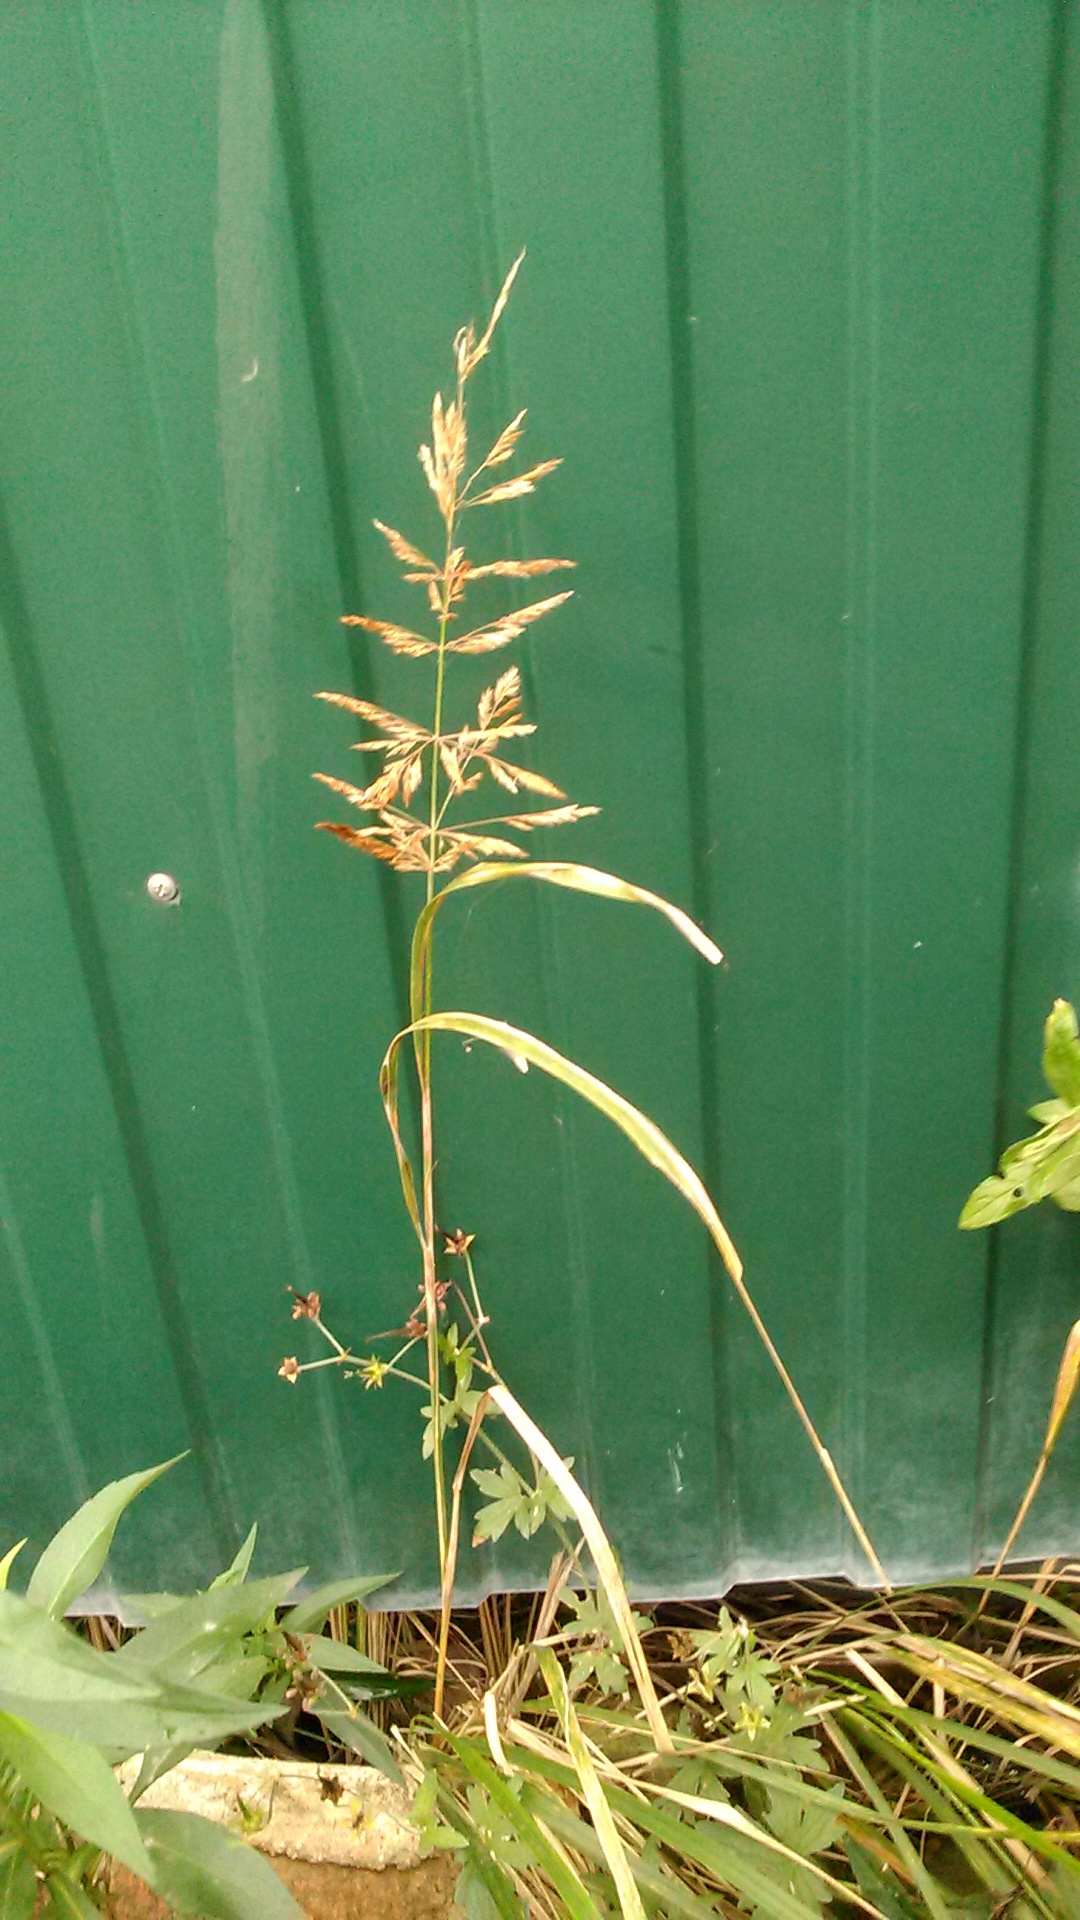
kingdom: Plantae
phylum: Tracheophyta
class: Liliopsida
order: Poales
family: Poaceae
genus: Calamagrostis
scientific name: Calamagrostis epigejos
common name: Wood small-reed
